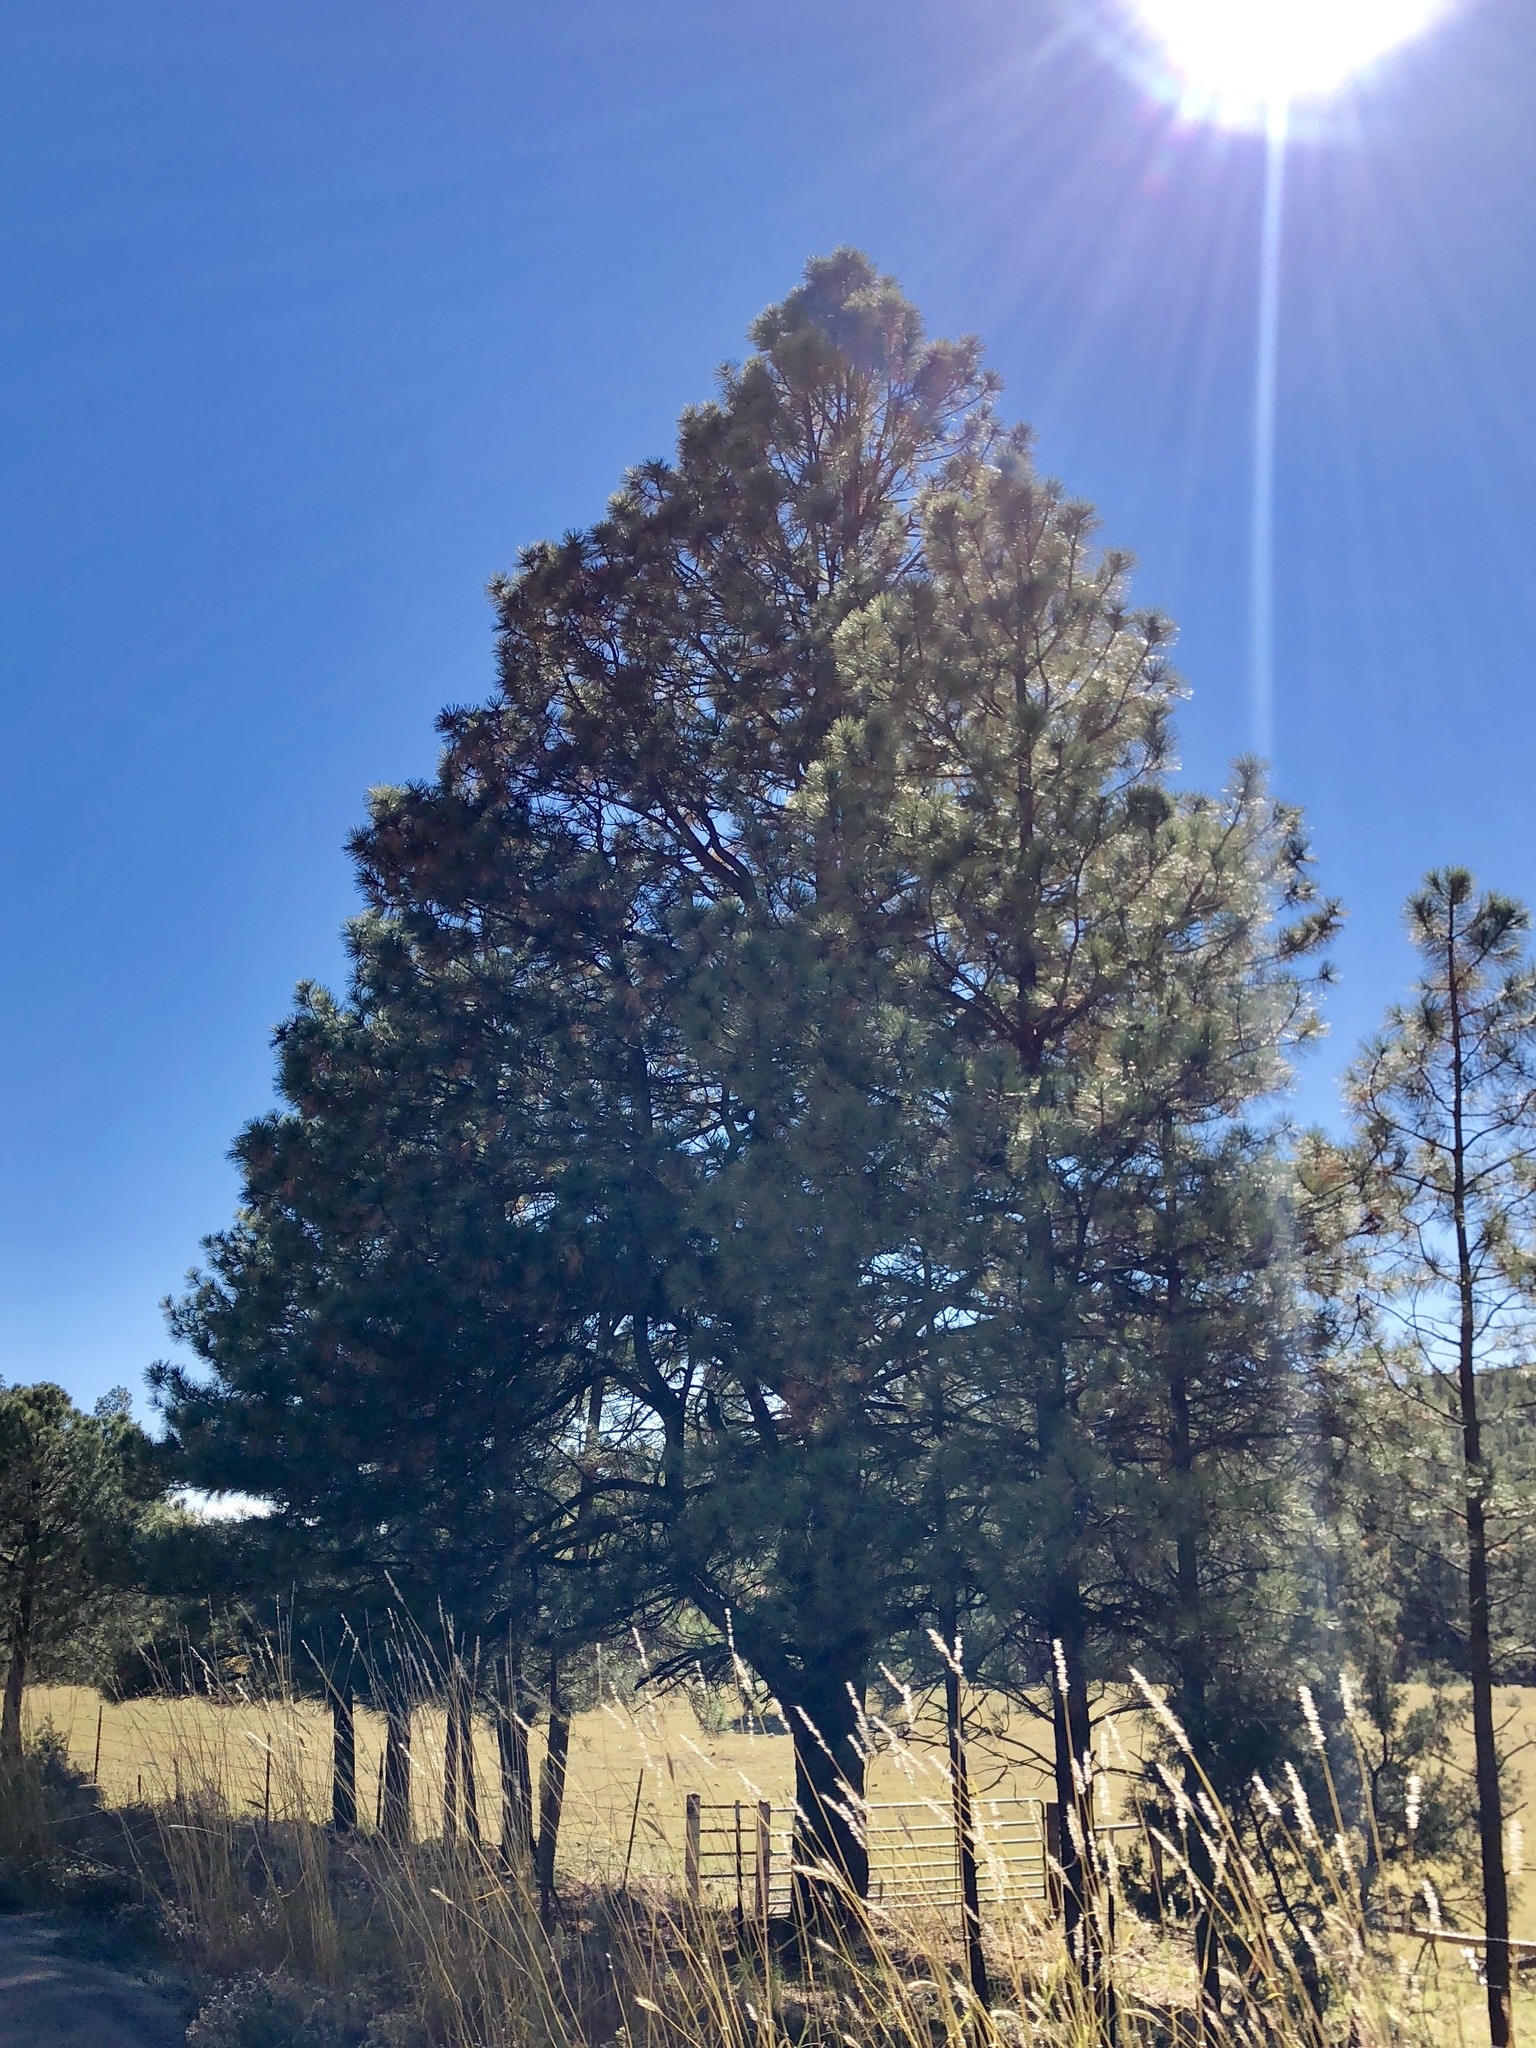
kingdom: Plantae
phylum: Tracheophyta
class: Pinopsida
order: Pinales
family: Pinaceae
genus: Pinus
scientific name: Pinus ponderosa
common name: Western yellow-pine
